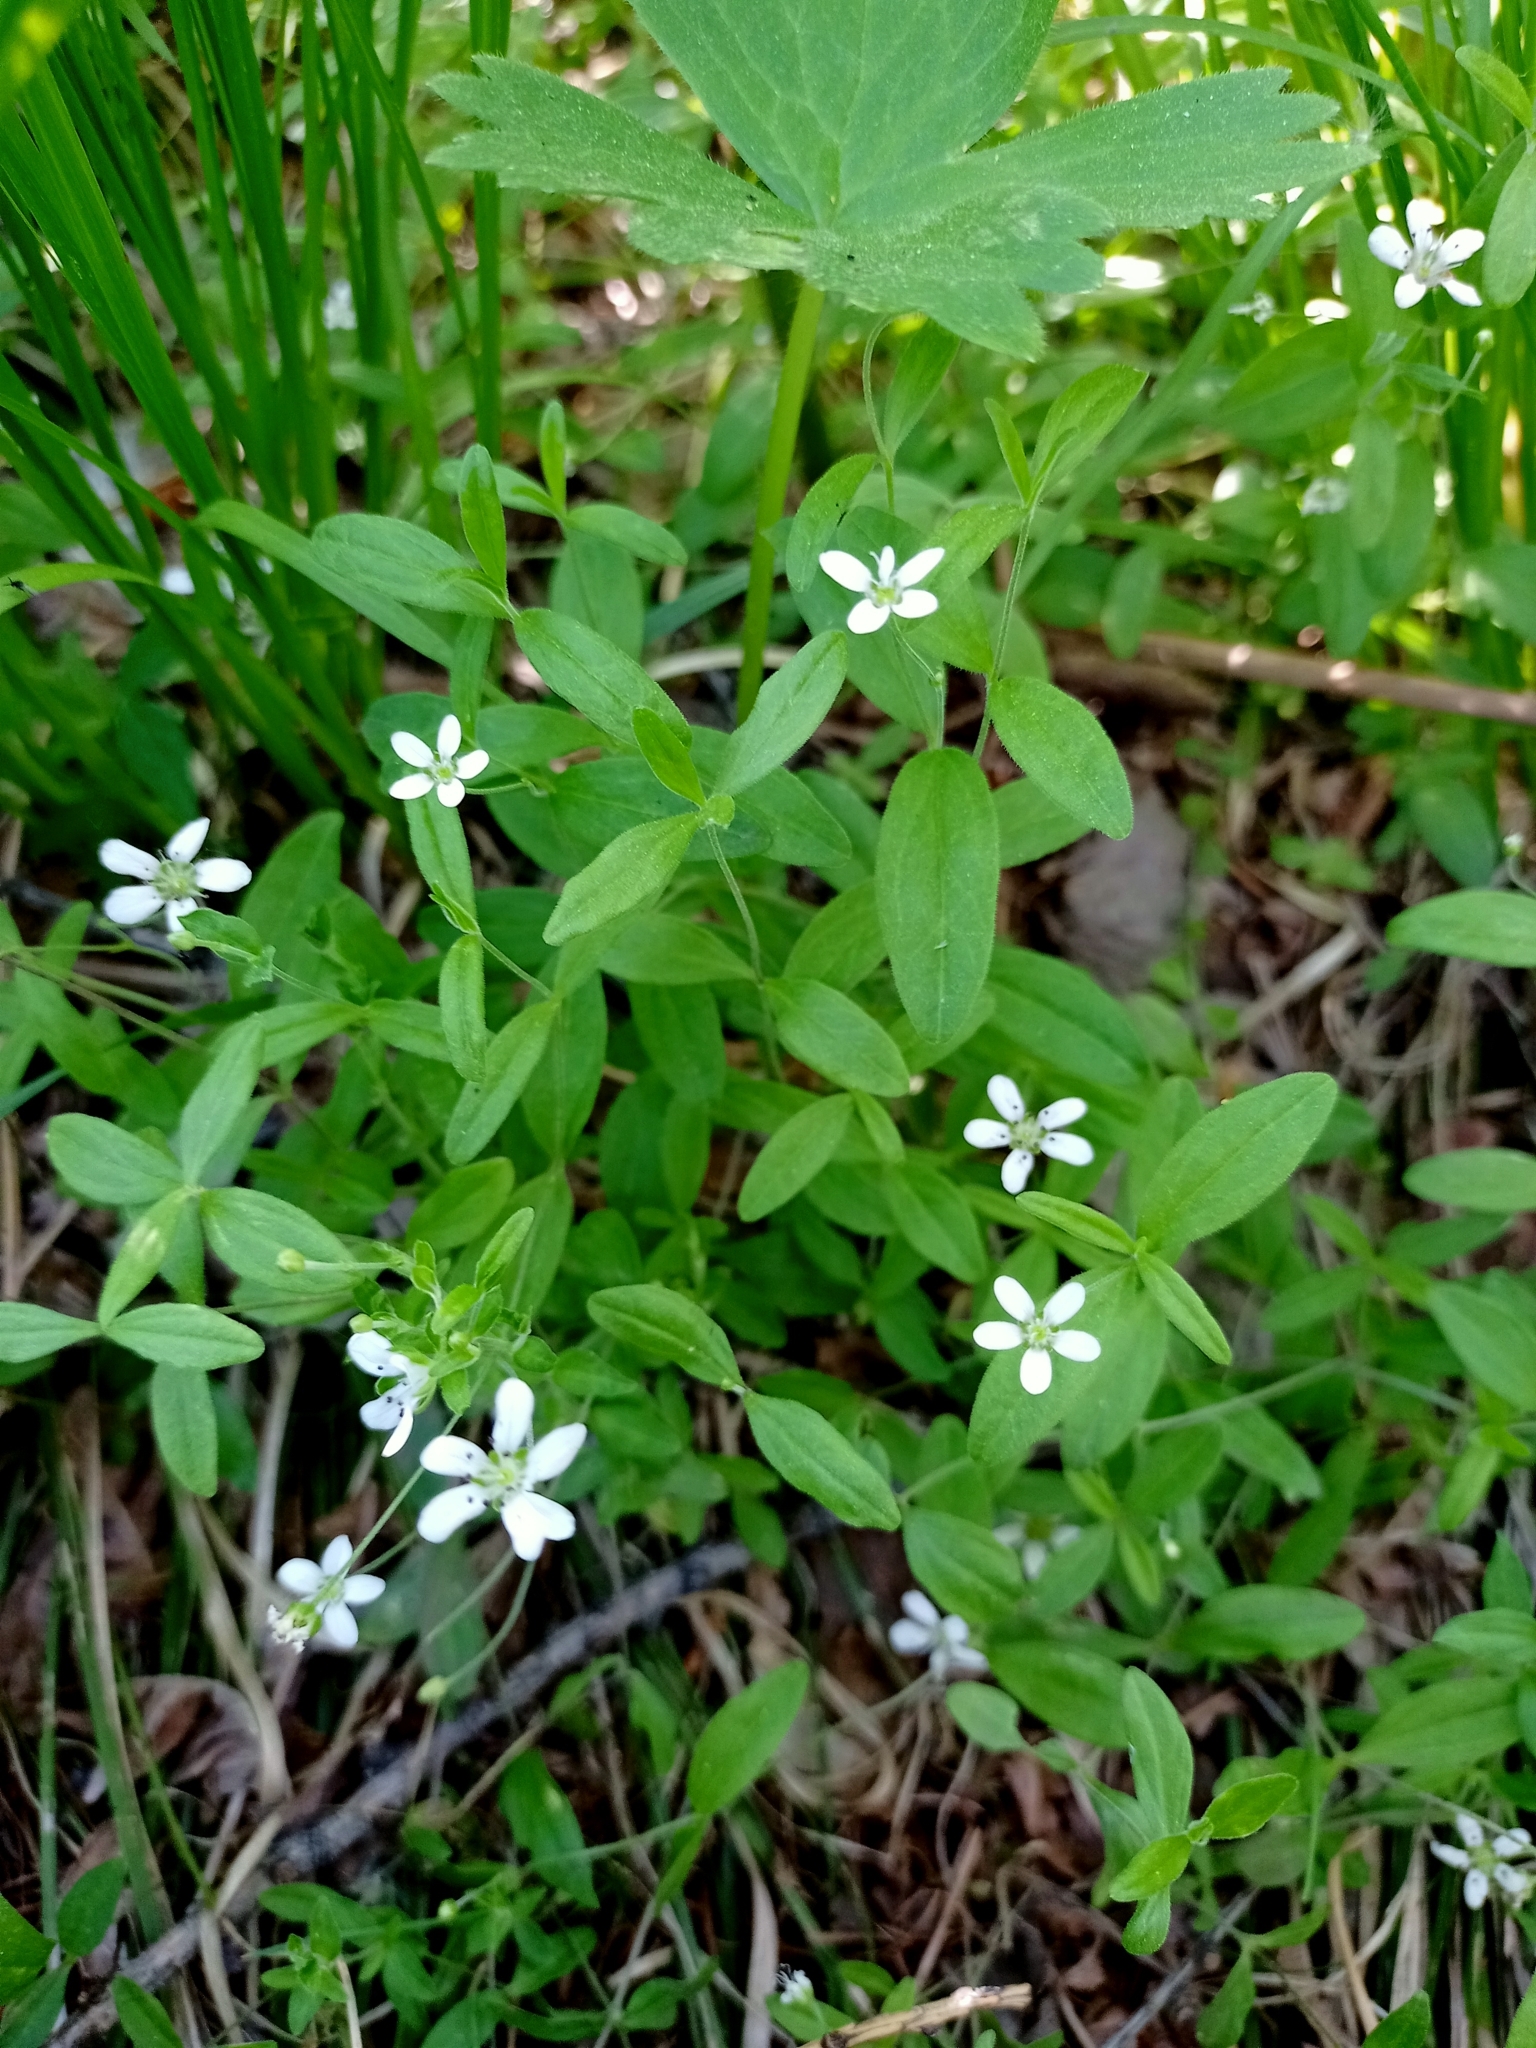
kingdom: Plantae
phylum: Tracheophyta
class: Magnoliopsida
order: Caryophyllales
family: Caryophyllaceae
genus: Moehringia
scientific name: Moehringia lateriflora
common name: Blunt-leaved sandwort
